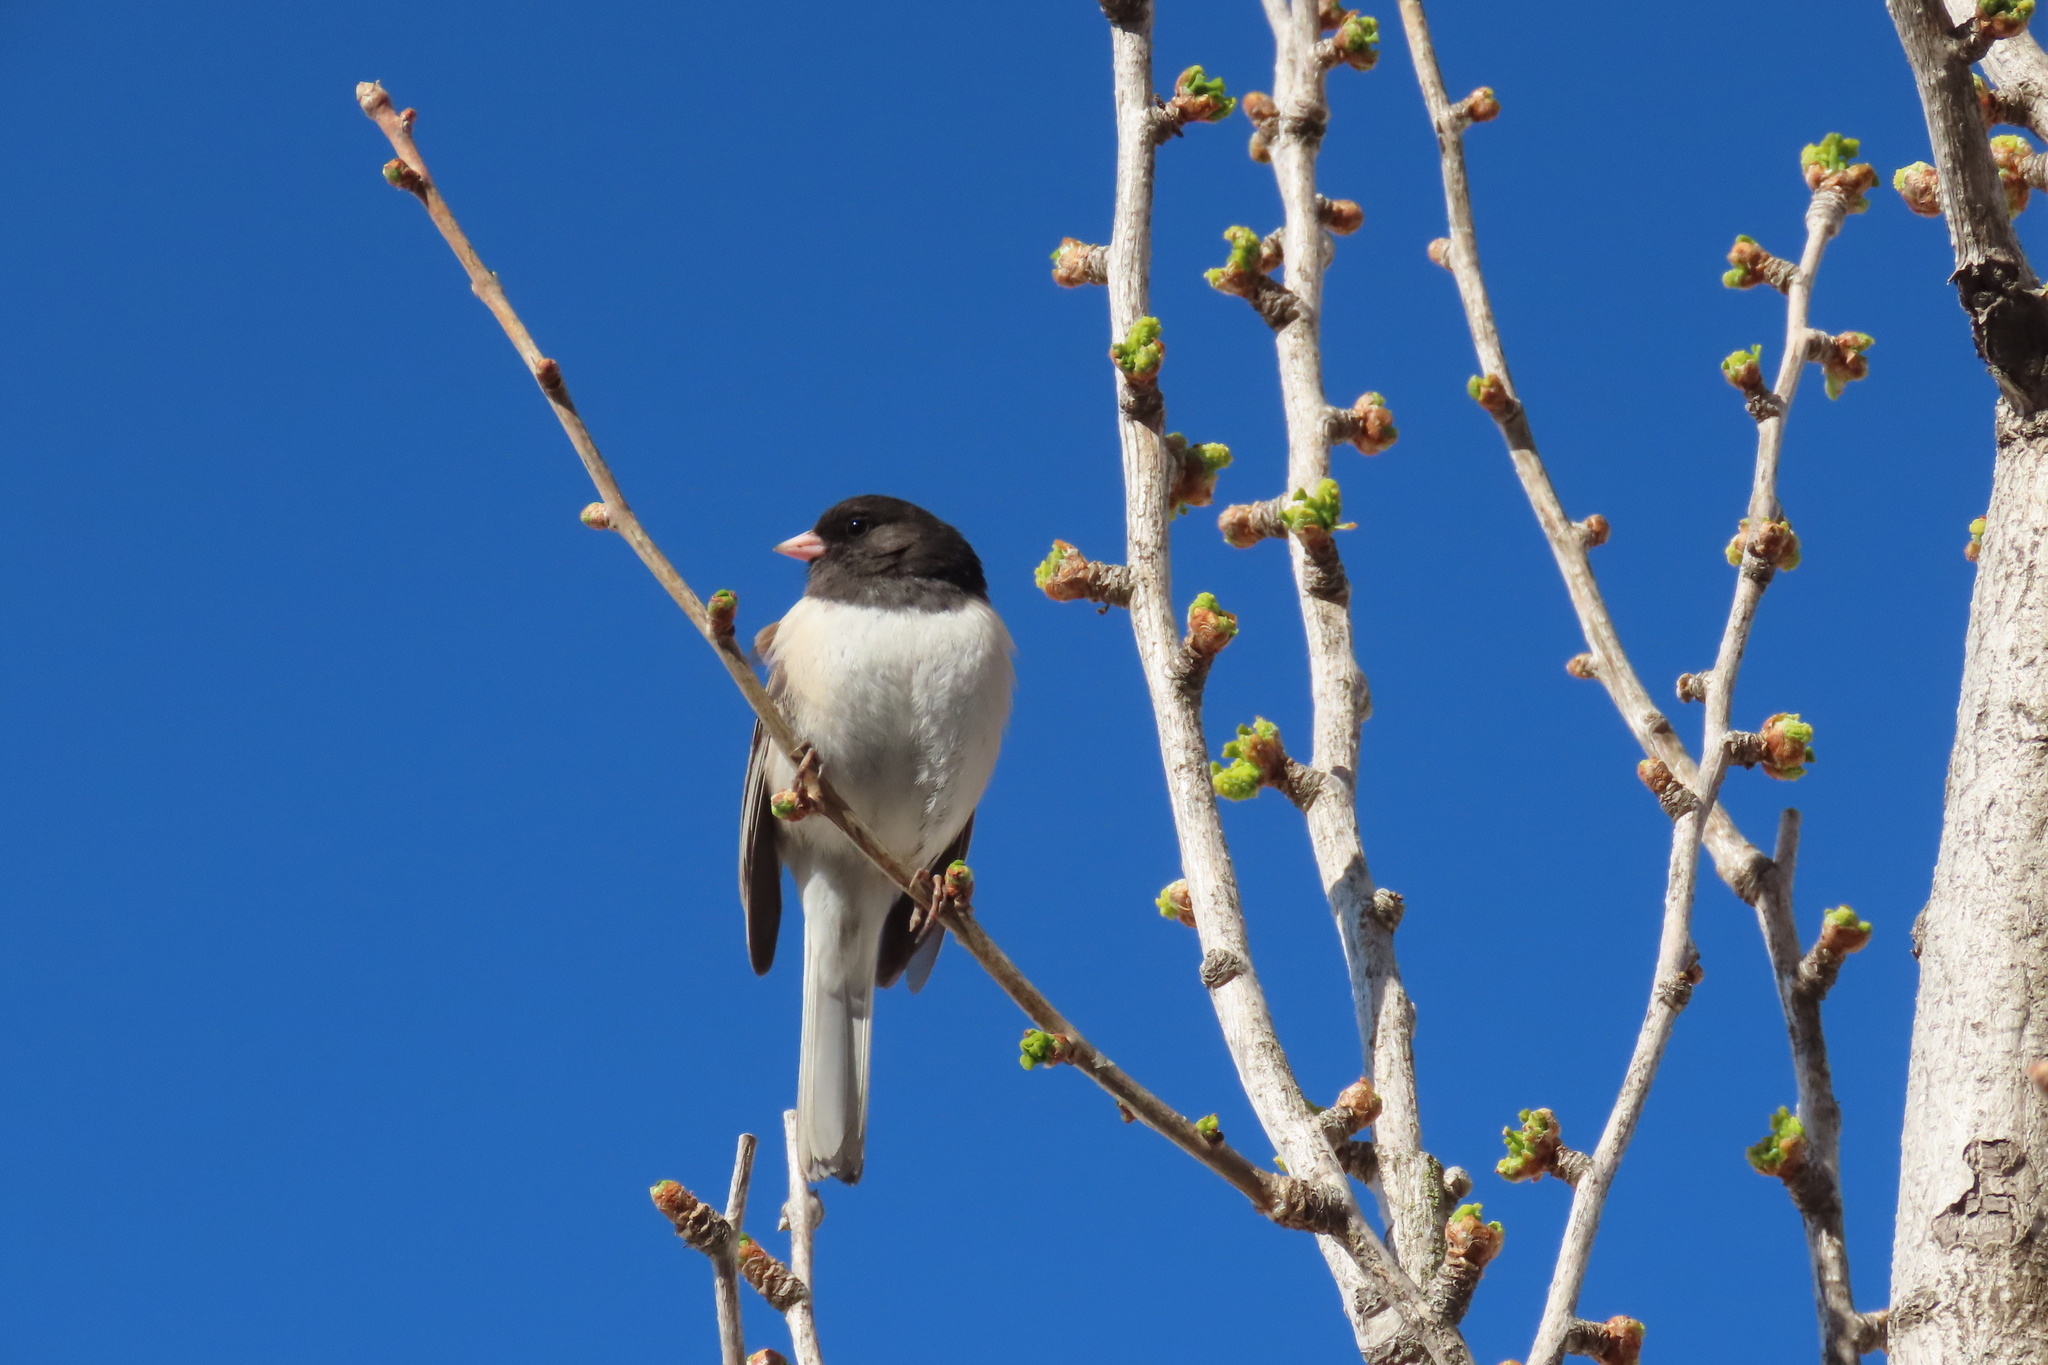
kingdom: Animalia
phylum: Chordata
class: Aves
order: Passeriformes
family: Passerellidae
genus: Junco
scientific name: Junco hyemalis
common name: Dark-eyed junco
